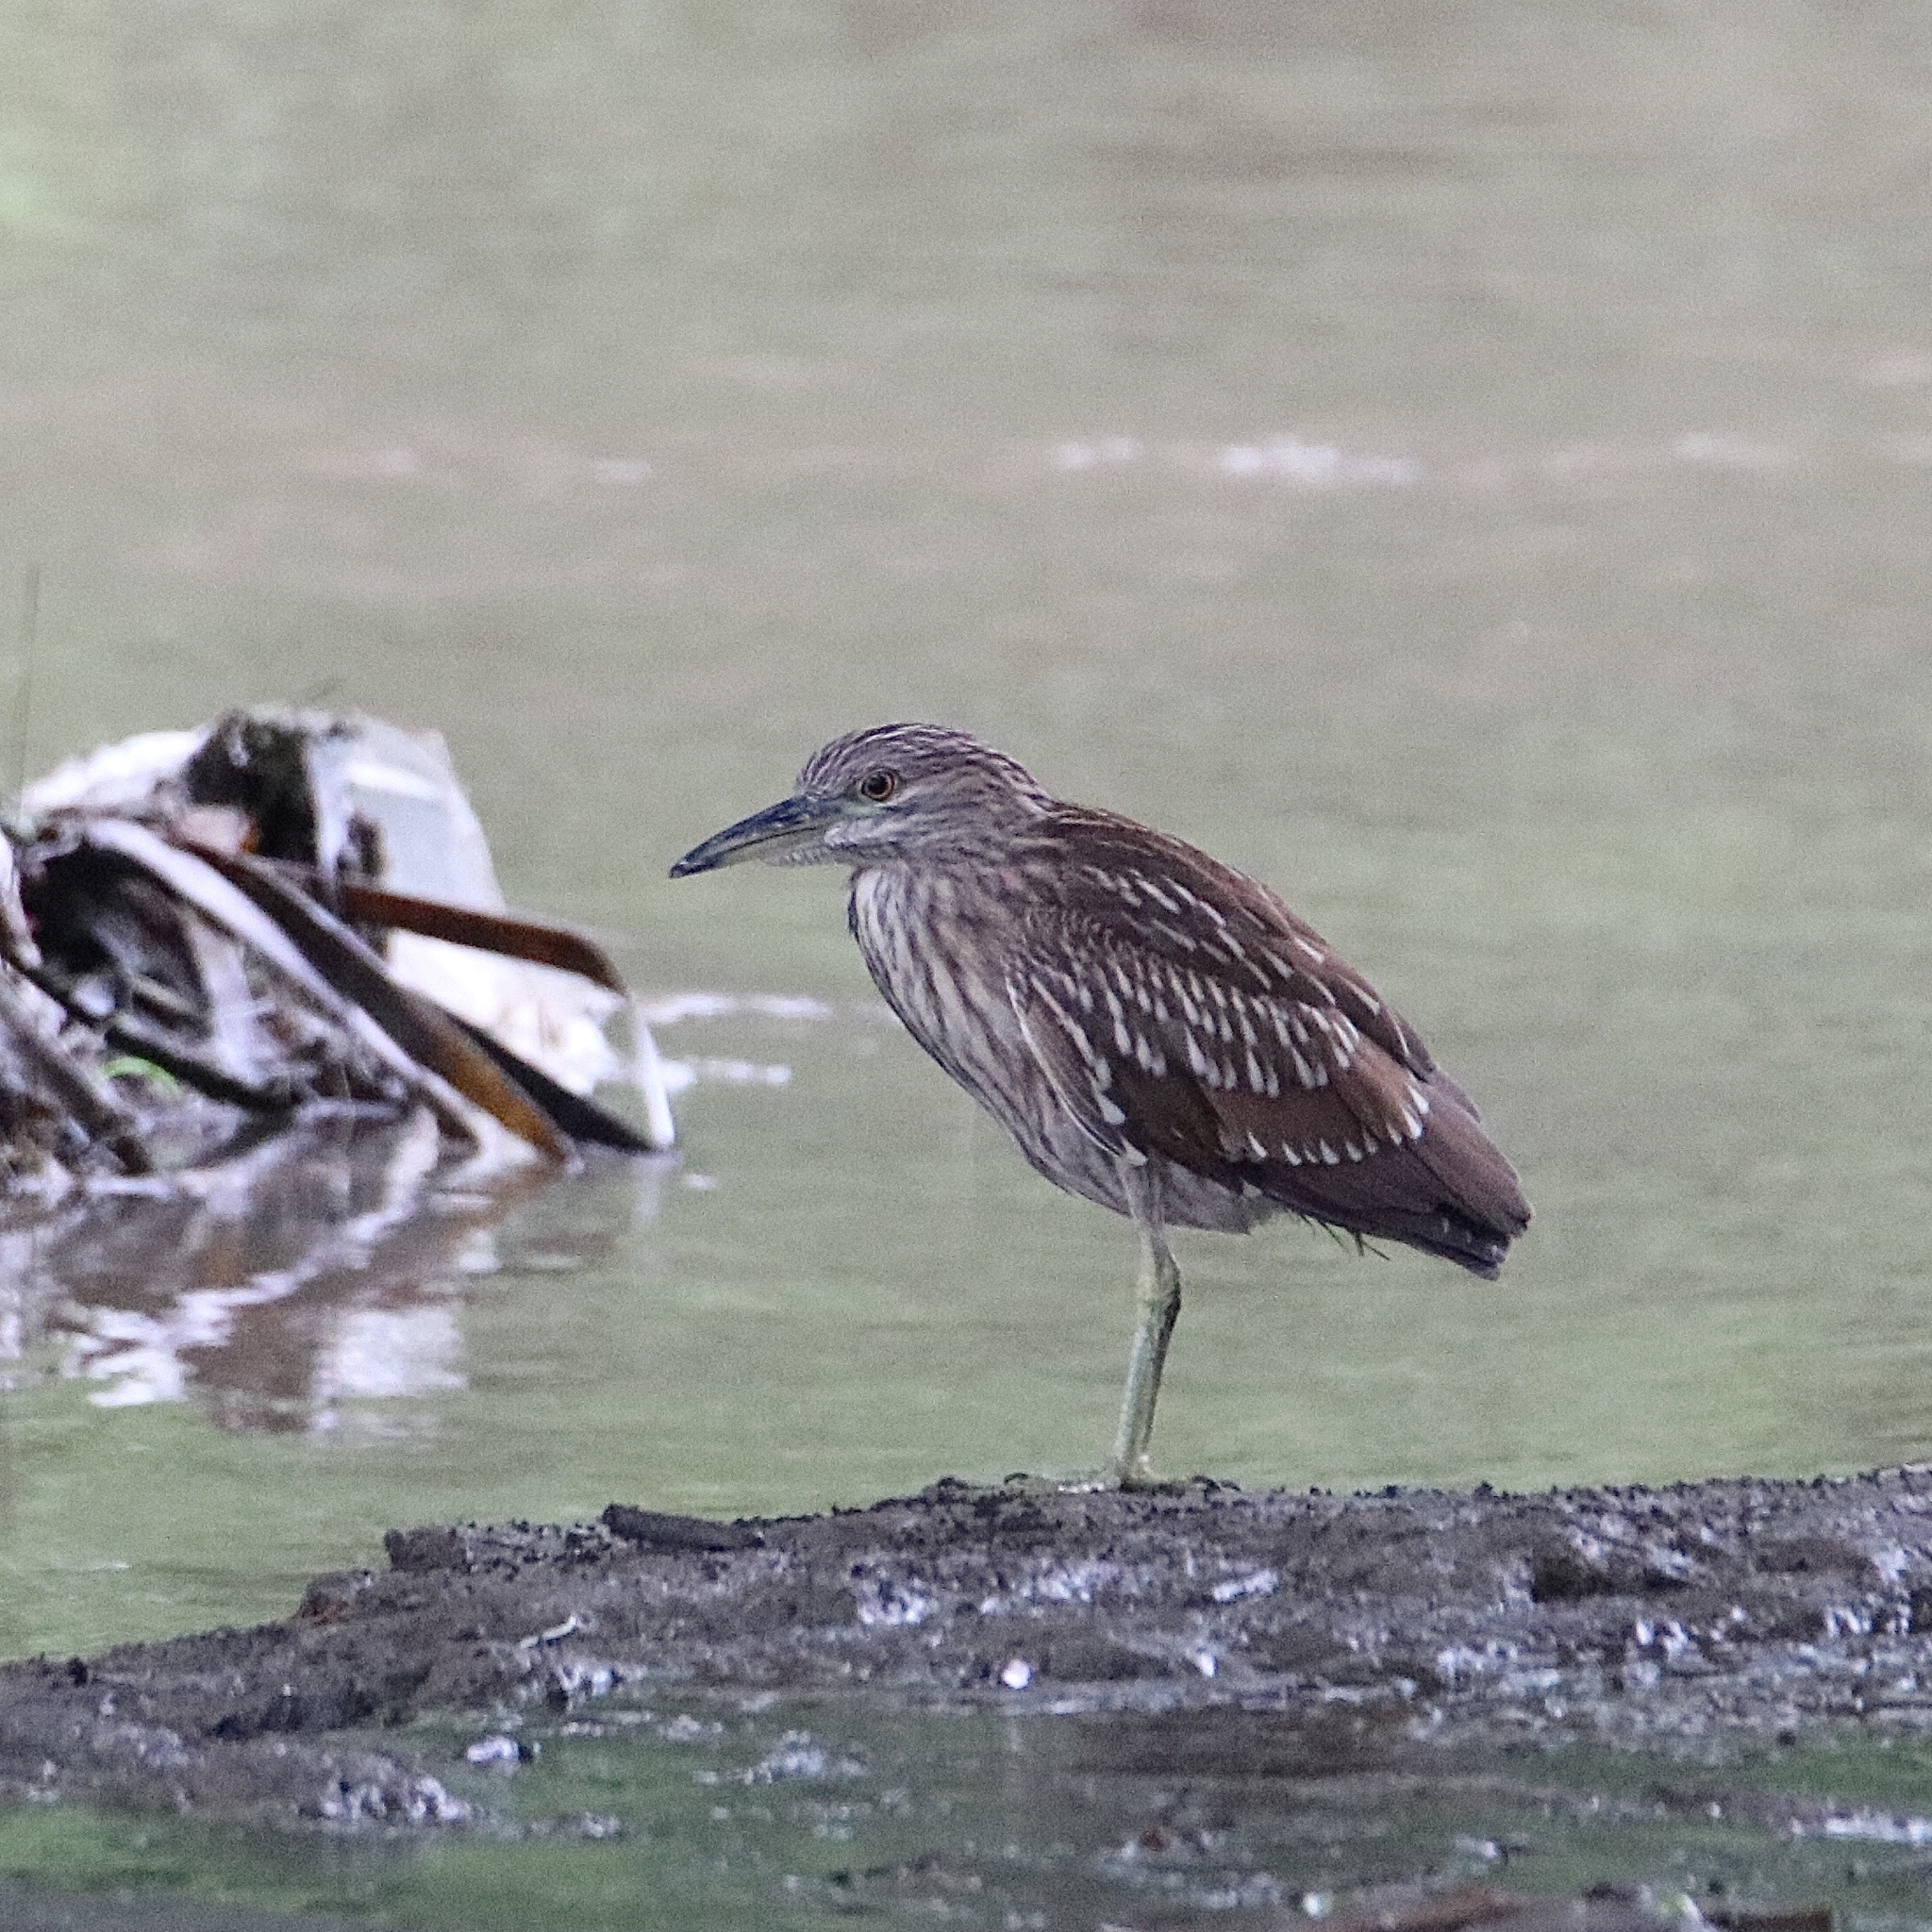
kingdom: Animalia
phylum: Chordata
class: Aves
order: Pelecaniformes
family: Ardeidae
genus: Nycticorax
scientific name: Nycticorax nycticorax
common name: Black-crowned night heron
